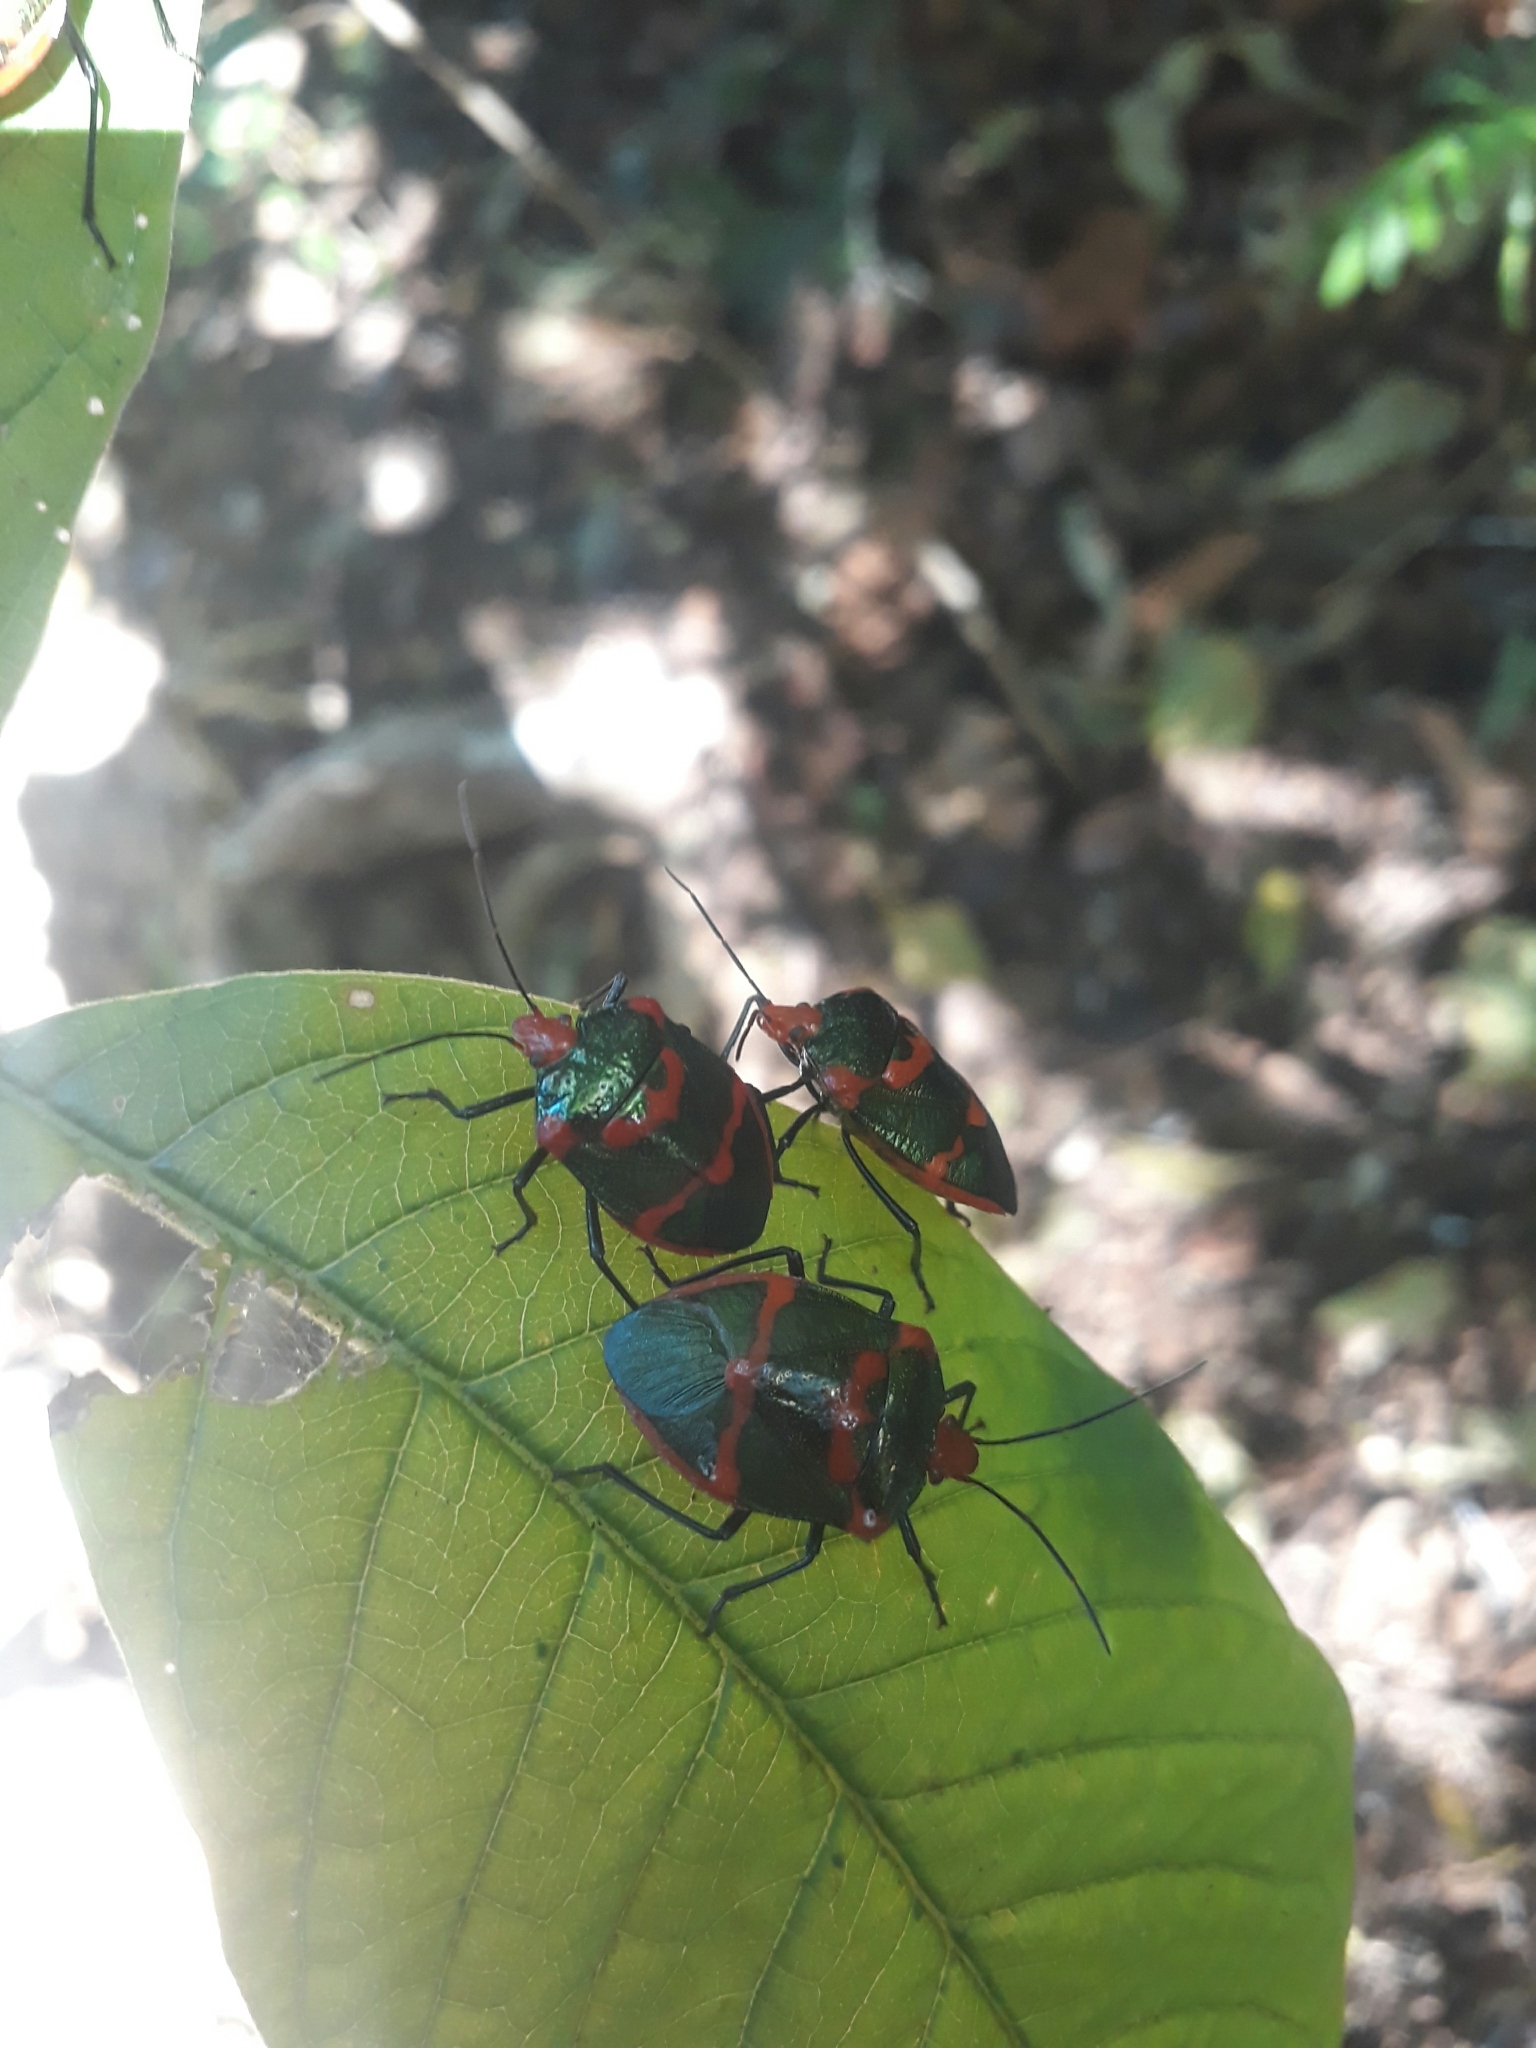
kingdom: Animalia
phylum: Arthropoda
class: Insecta
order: Hemiptera
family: Pentatomidae
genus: Pharypia
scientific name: Pharypia pulchella
